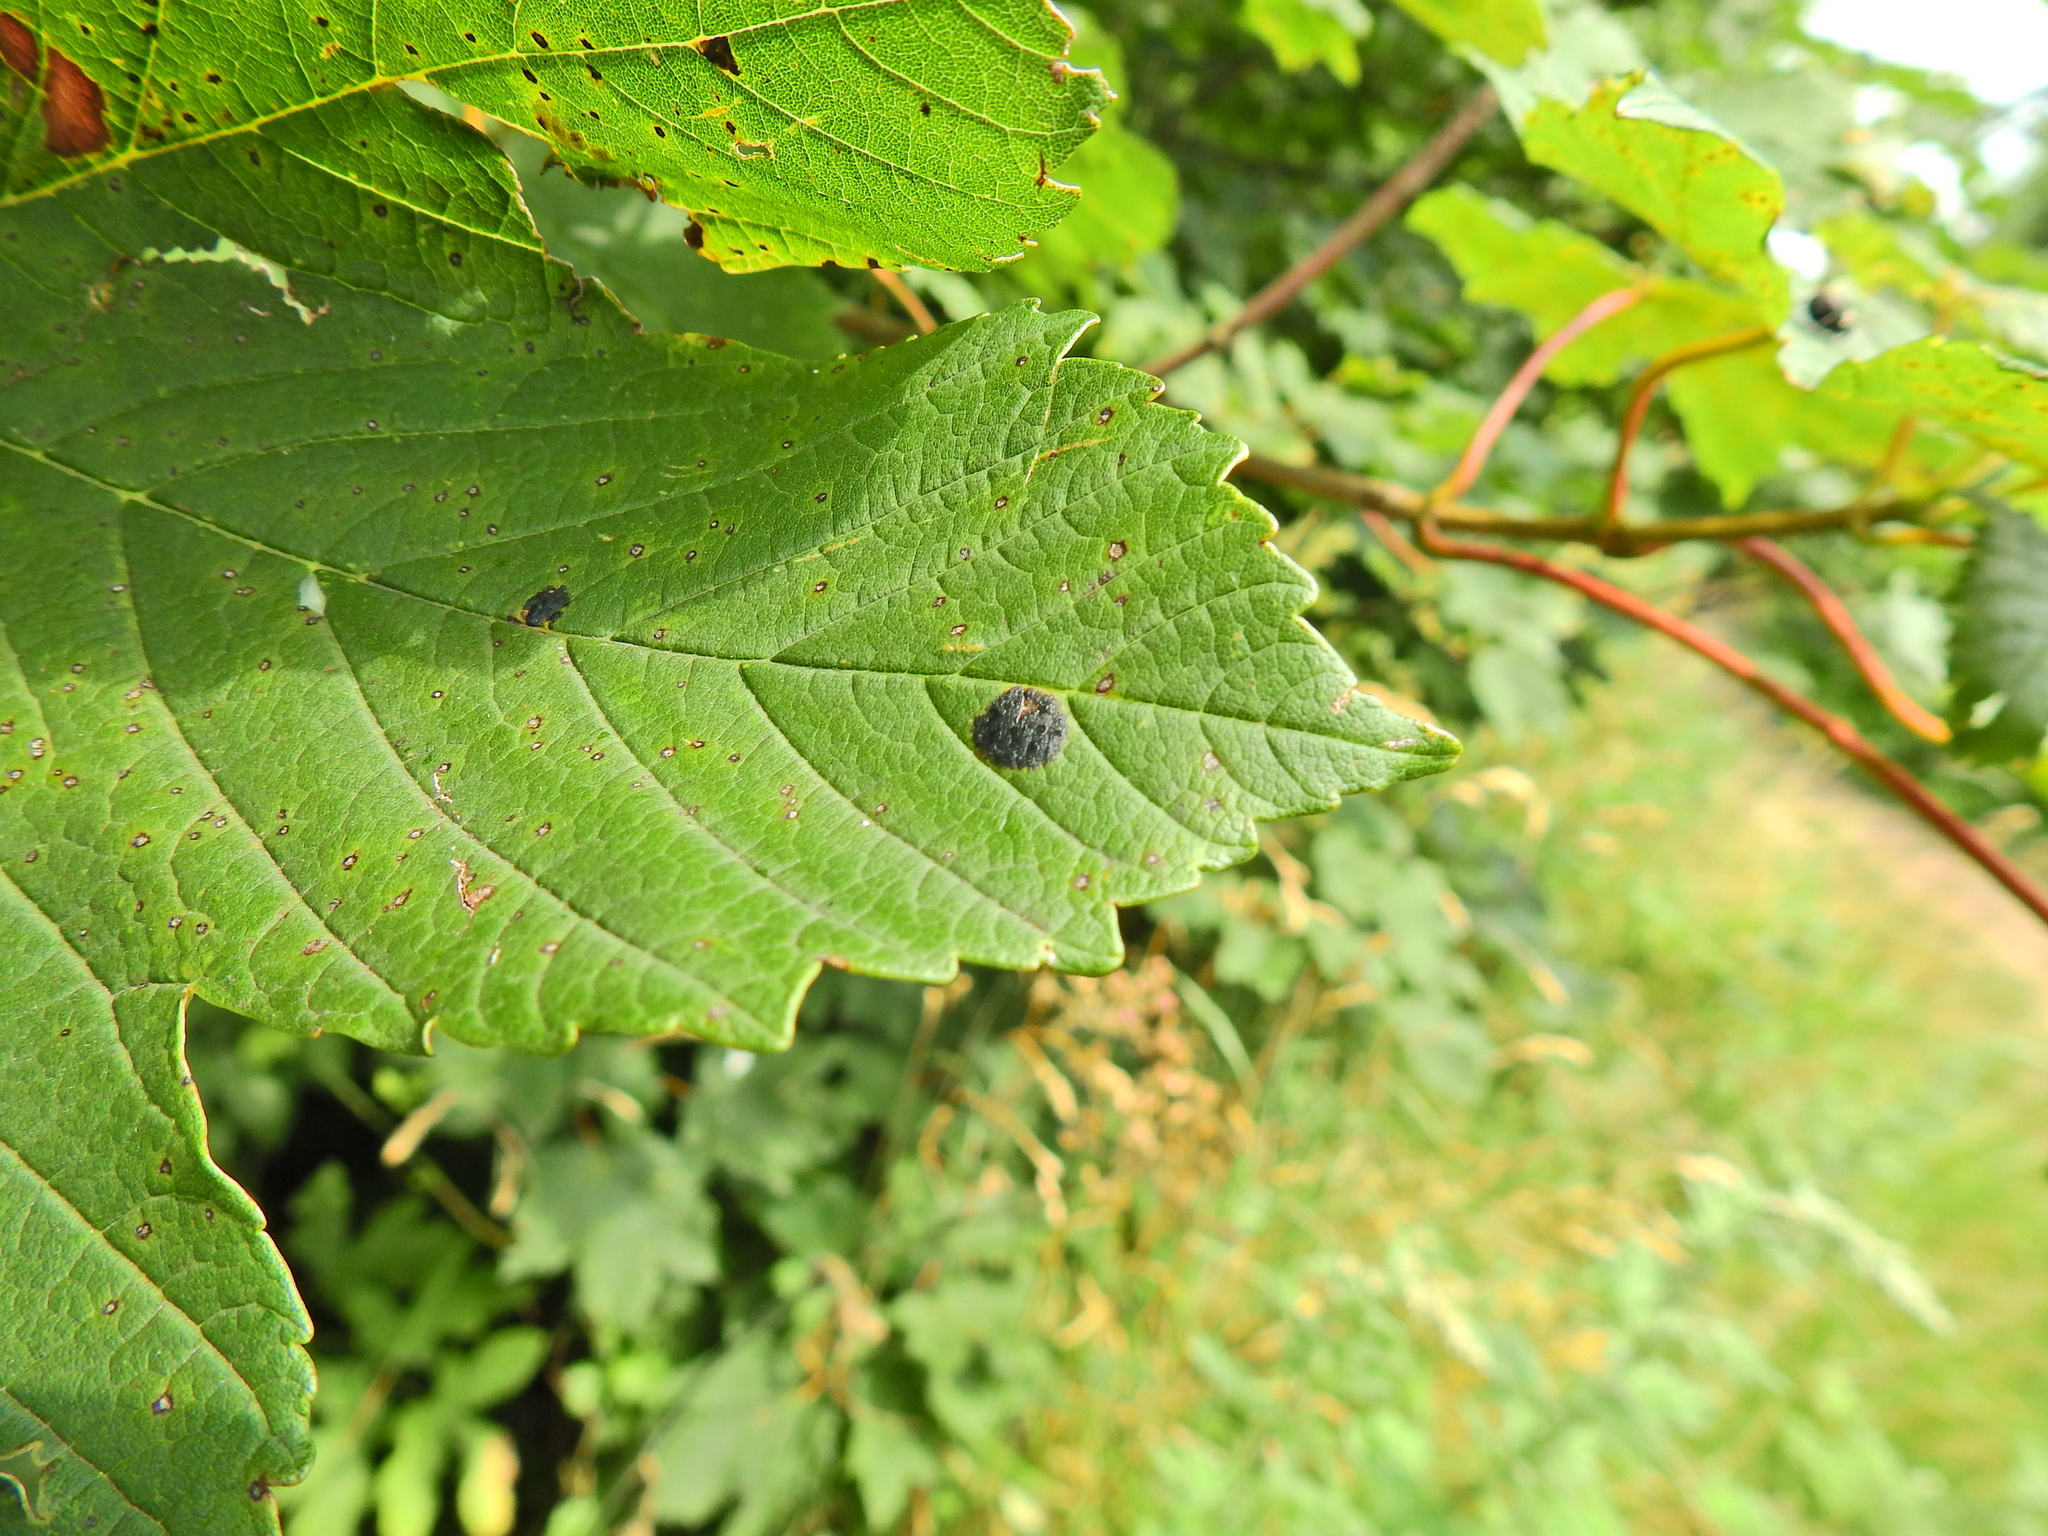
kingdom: Fungi
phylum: Ascomycota
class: Leotiomycetes
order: Rhytismatales
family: Rhytismataceae
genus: Rhytisma
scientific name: Rhytisma acerinum
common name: European tar spot
